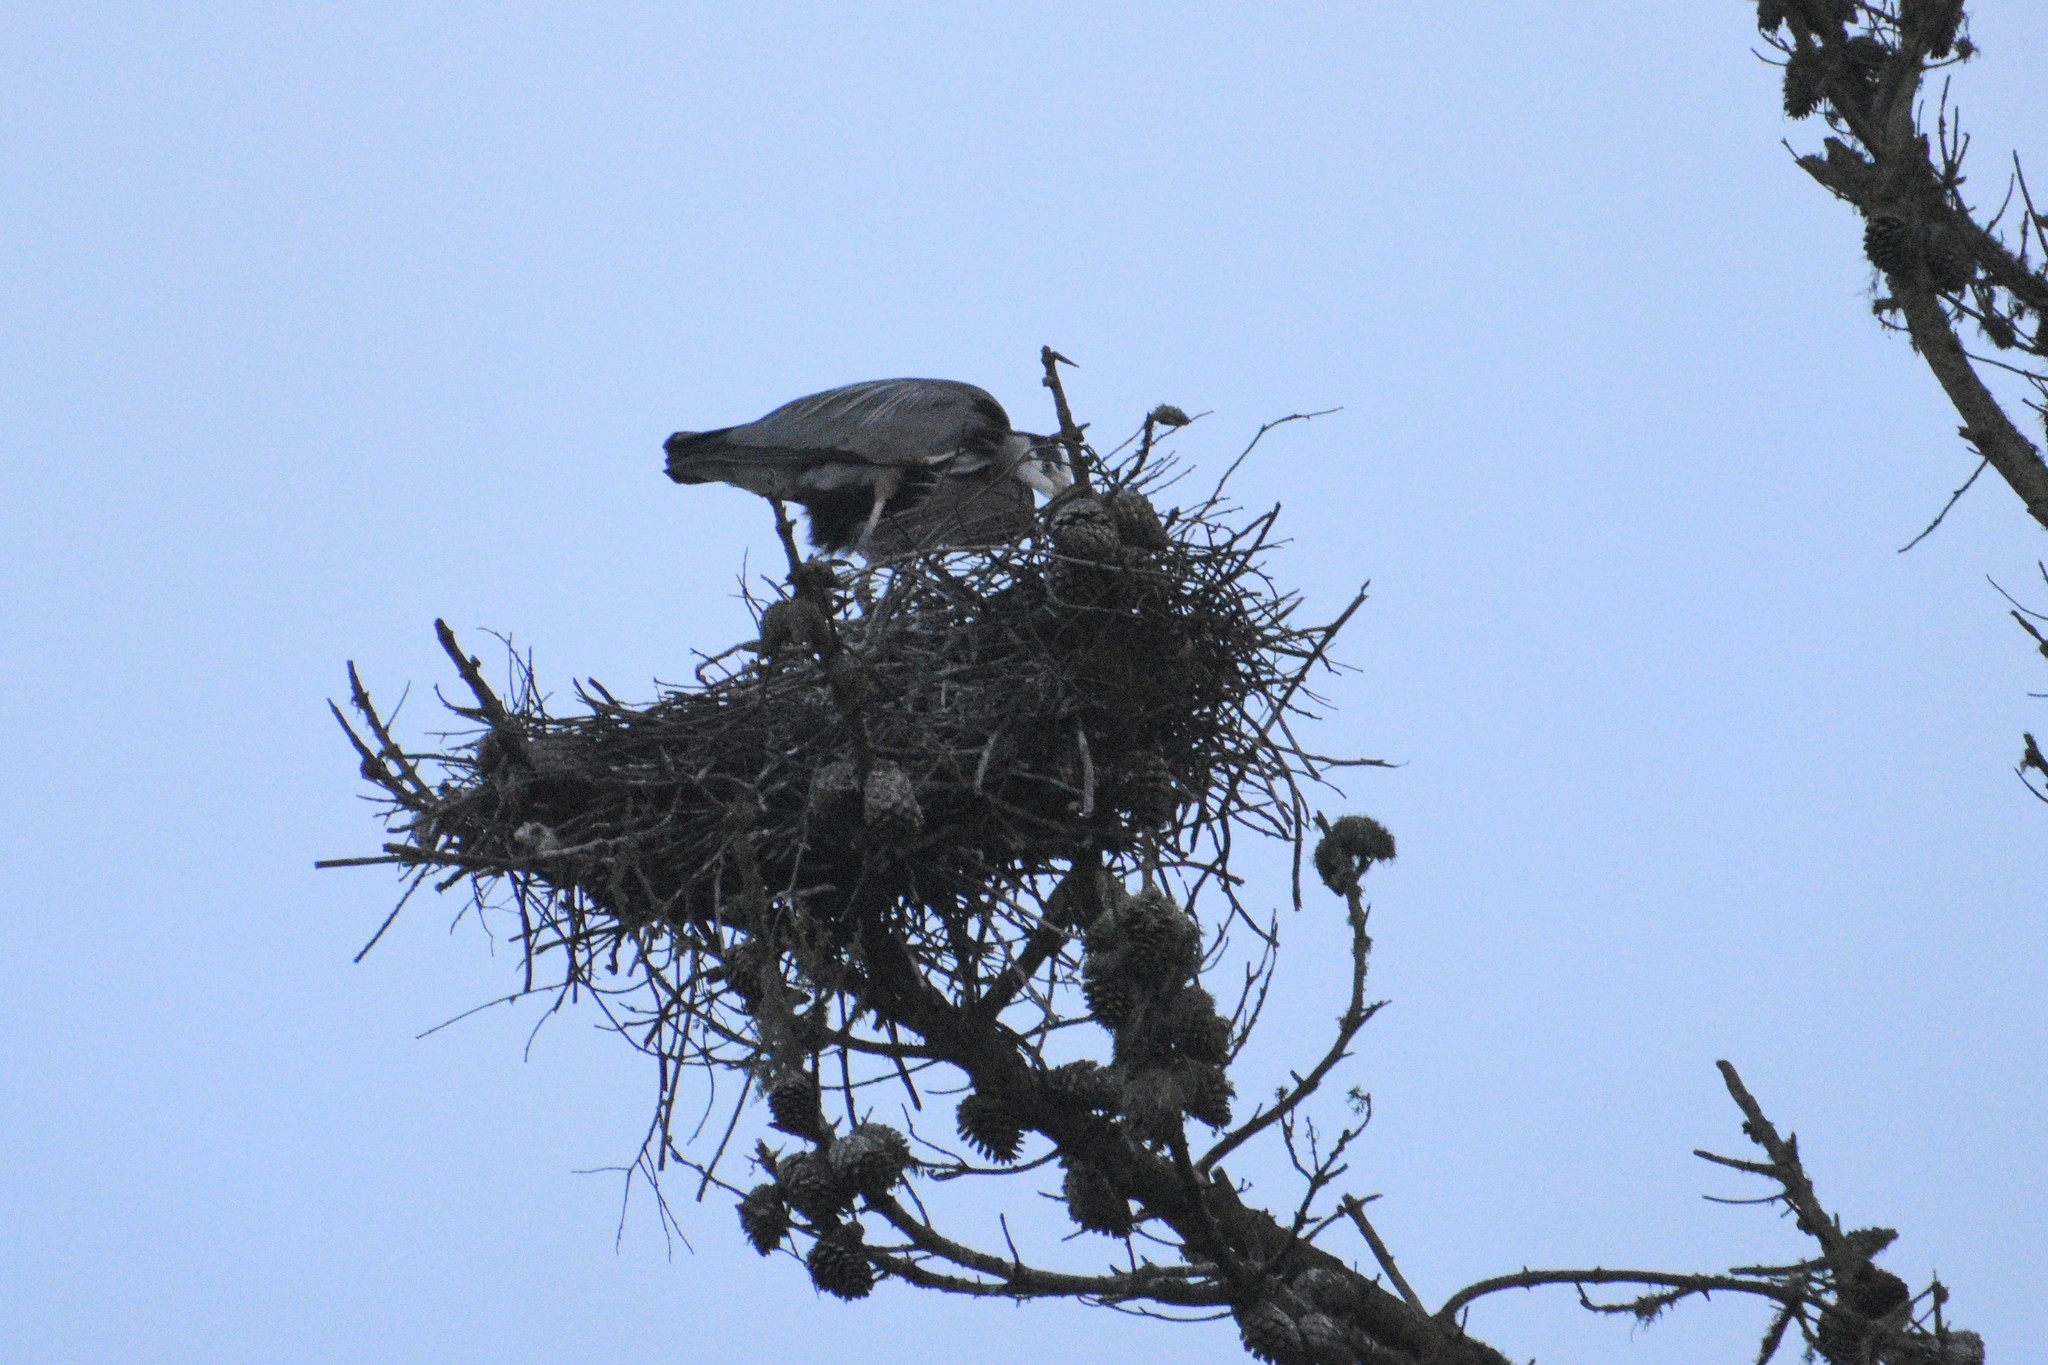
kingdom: Animalia
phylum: Chordata
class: Aves
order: Pelecaniformes
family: Ardeidae
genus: Ardea
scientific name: Ardea herodias
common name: Great blue heron
